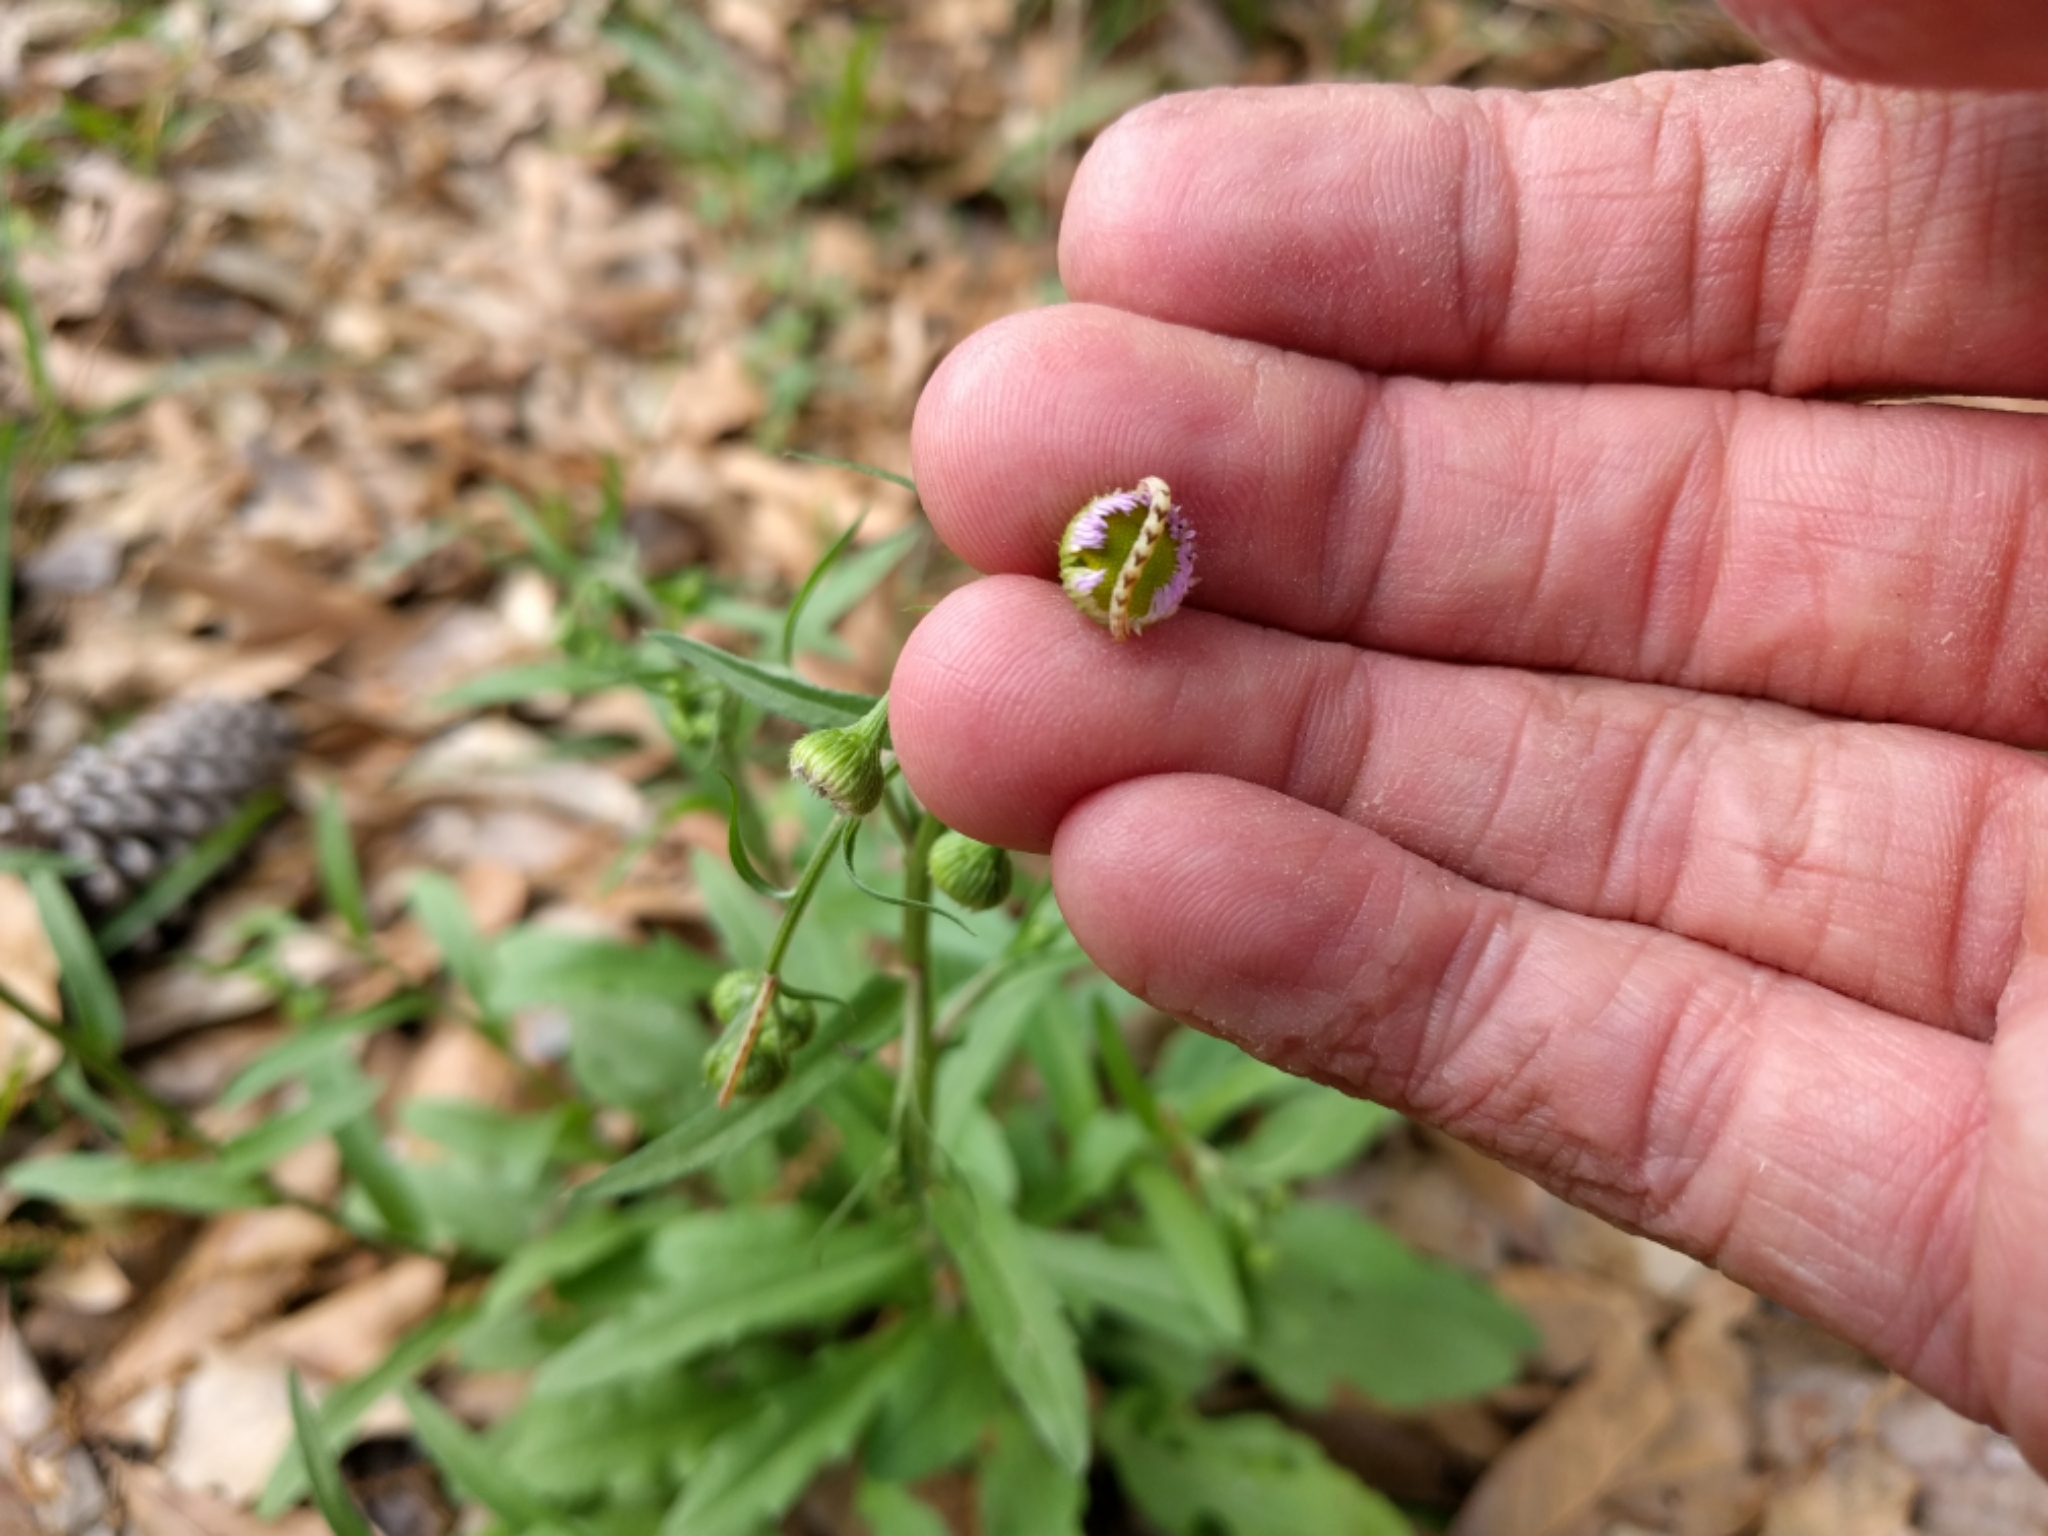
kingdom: Animalia
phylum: Arthropoda
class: Insecta
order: Lepidoptera
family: Geometridae
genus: Eupithecia
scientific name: Eupithecia miserulata
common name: Common eupithecia
